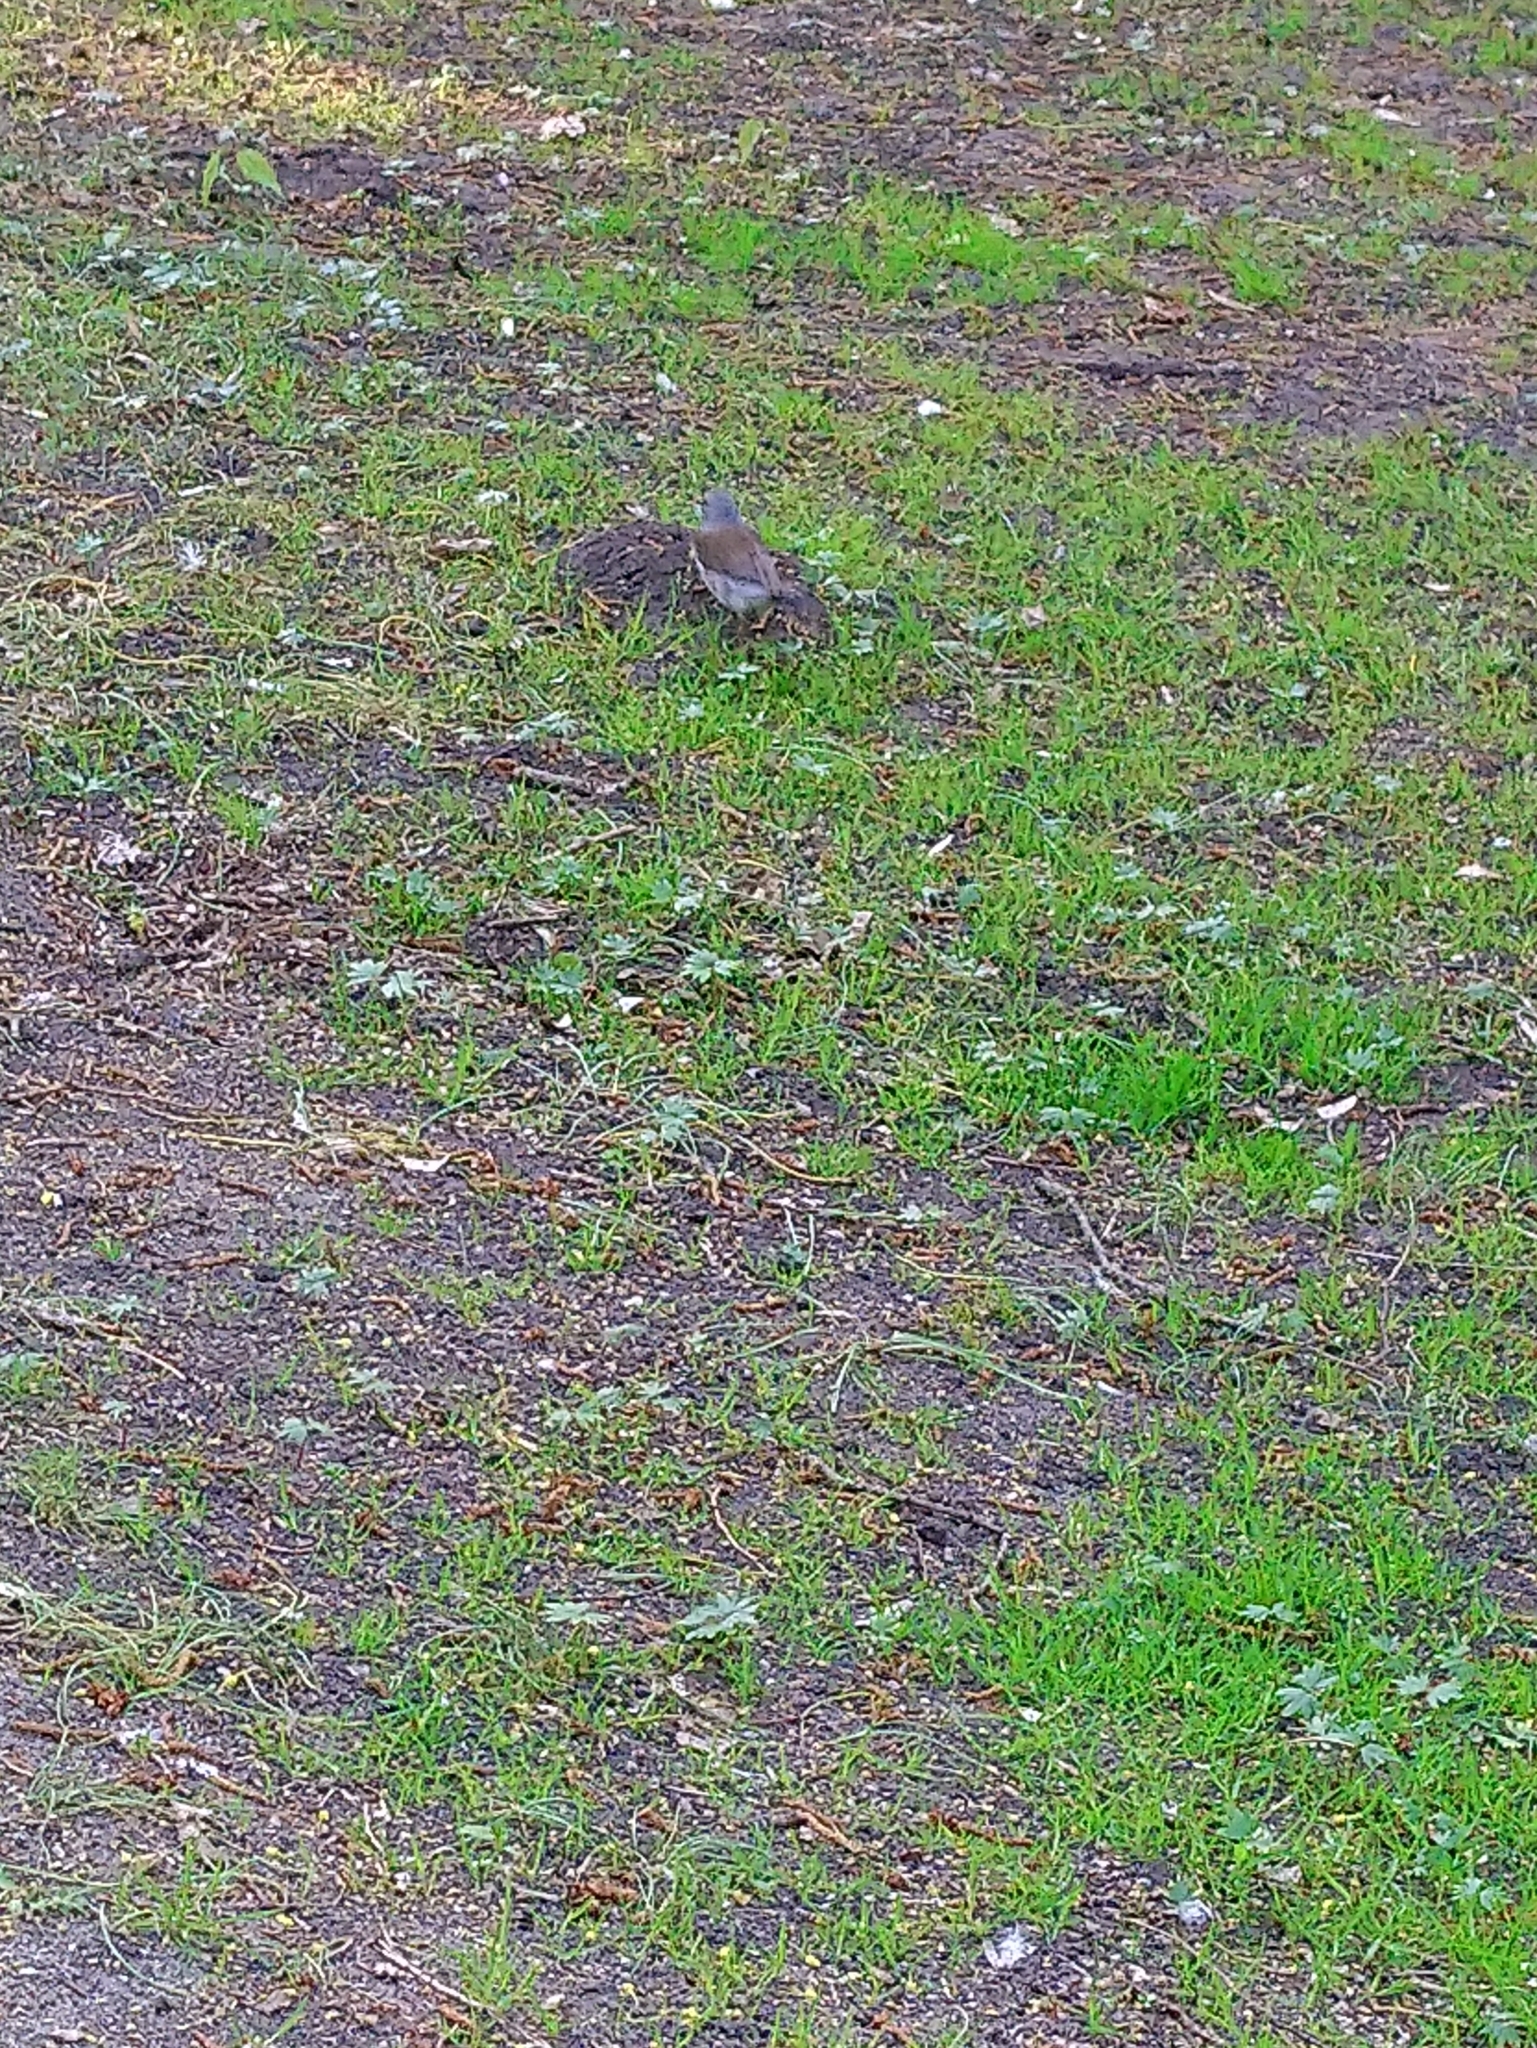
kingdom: Animalia
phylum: Chordata
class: Aves
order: Passeriformes
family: Turdidae
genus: Turdus
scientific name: Turdus pilaris
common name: Fieldfare
